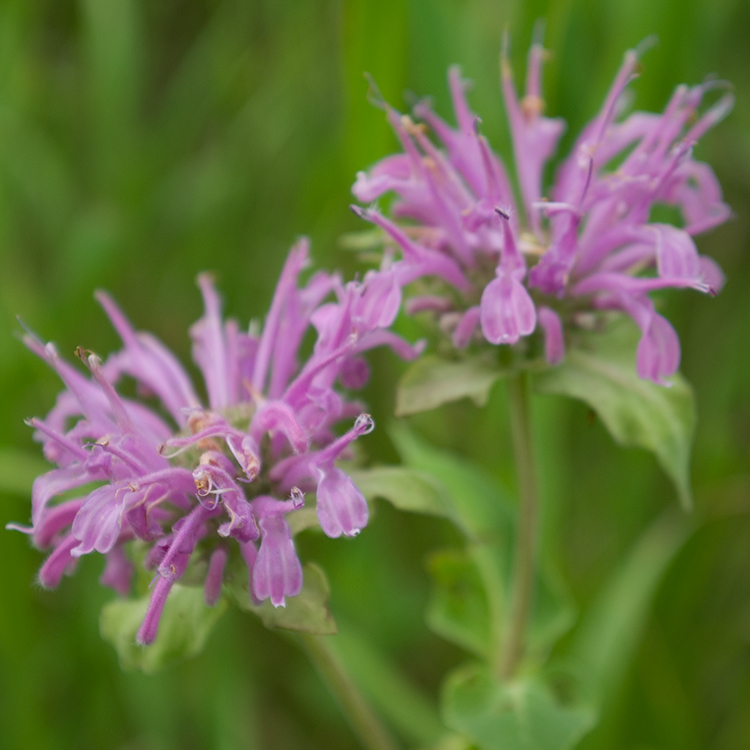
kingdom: Plantae
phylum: Tracheophyta
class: Magnoliopsida
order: Lamiales
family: Lamiaceae
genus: Monarda
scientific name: Monarda fistulosa
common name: Purple beebalm
